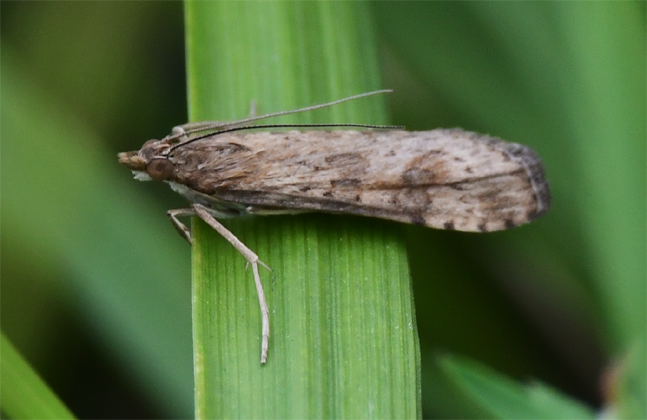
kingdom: Animalia
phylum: Arthropoda
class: Insecta
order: Lepidoptera
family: Crambidae
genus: Nomophila
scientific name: Nomophila nearctica
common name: American rush veneer
